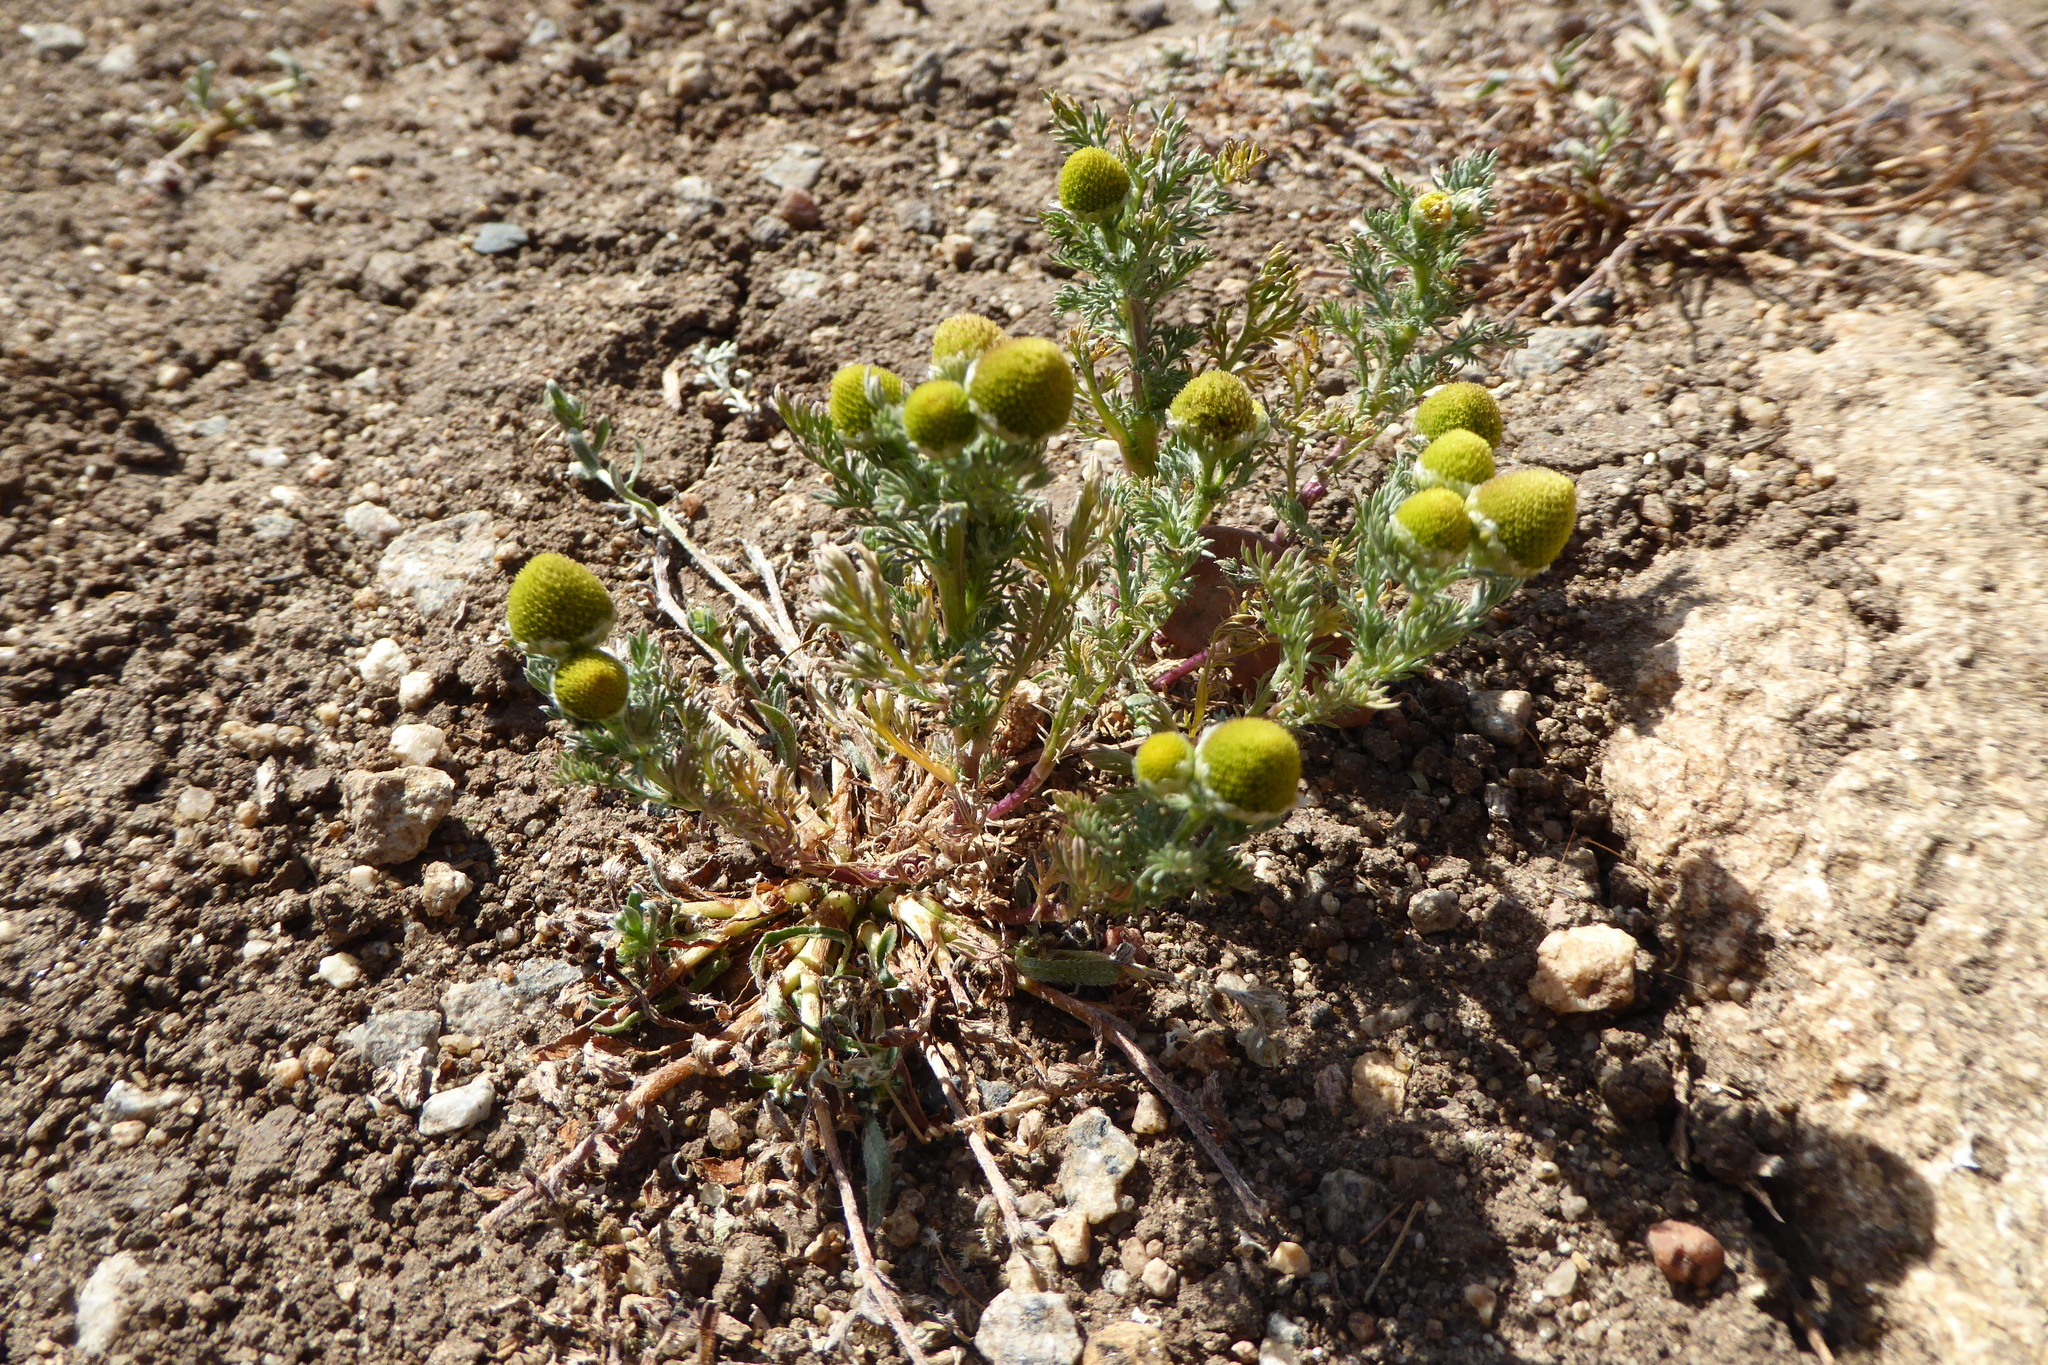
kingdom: Plantae
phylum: Tracheophyta
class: Magnoliopsida
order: Asterales
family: Asteraceae
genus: Matricaria
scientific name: Matricaria discoidea
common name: Disc mayweed
